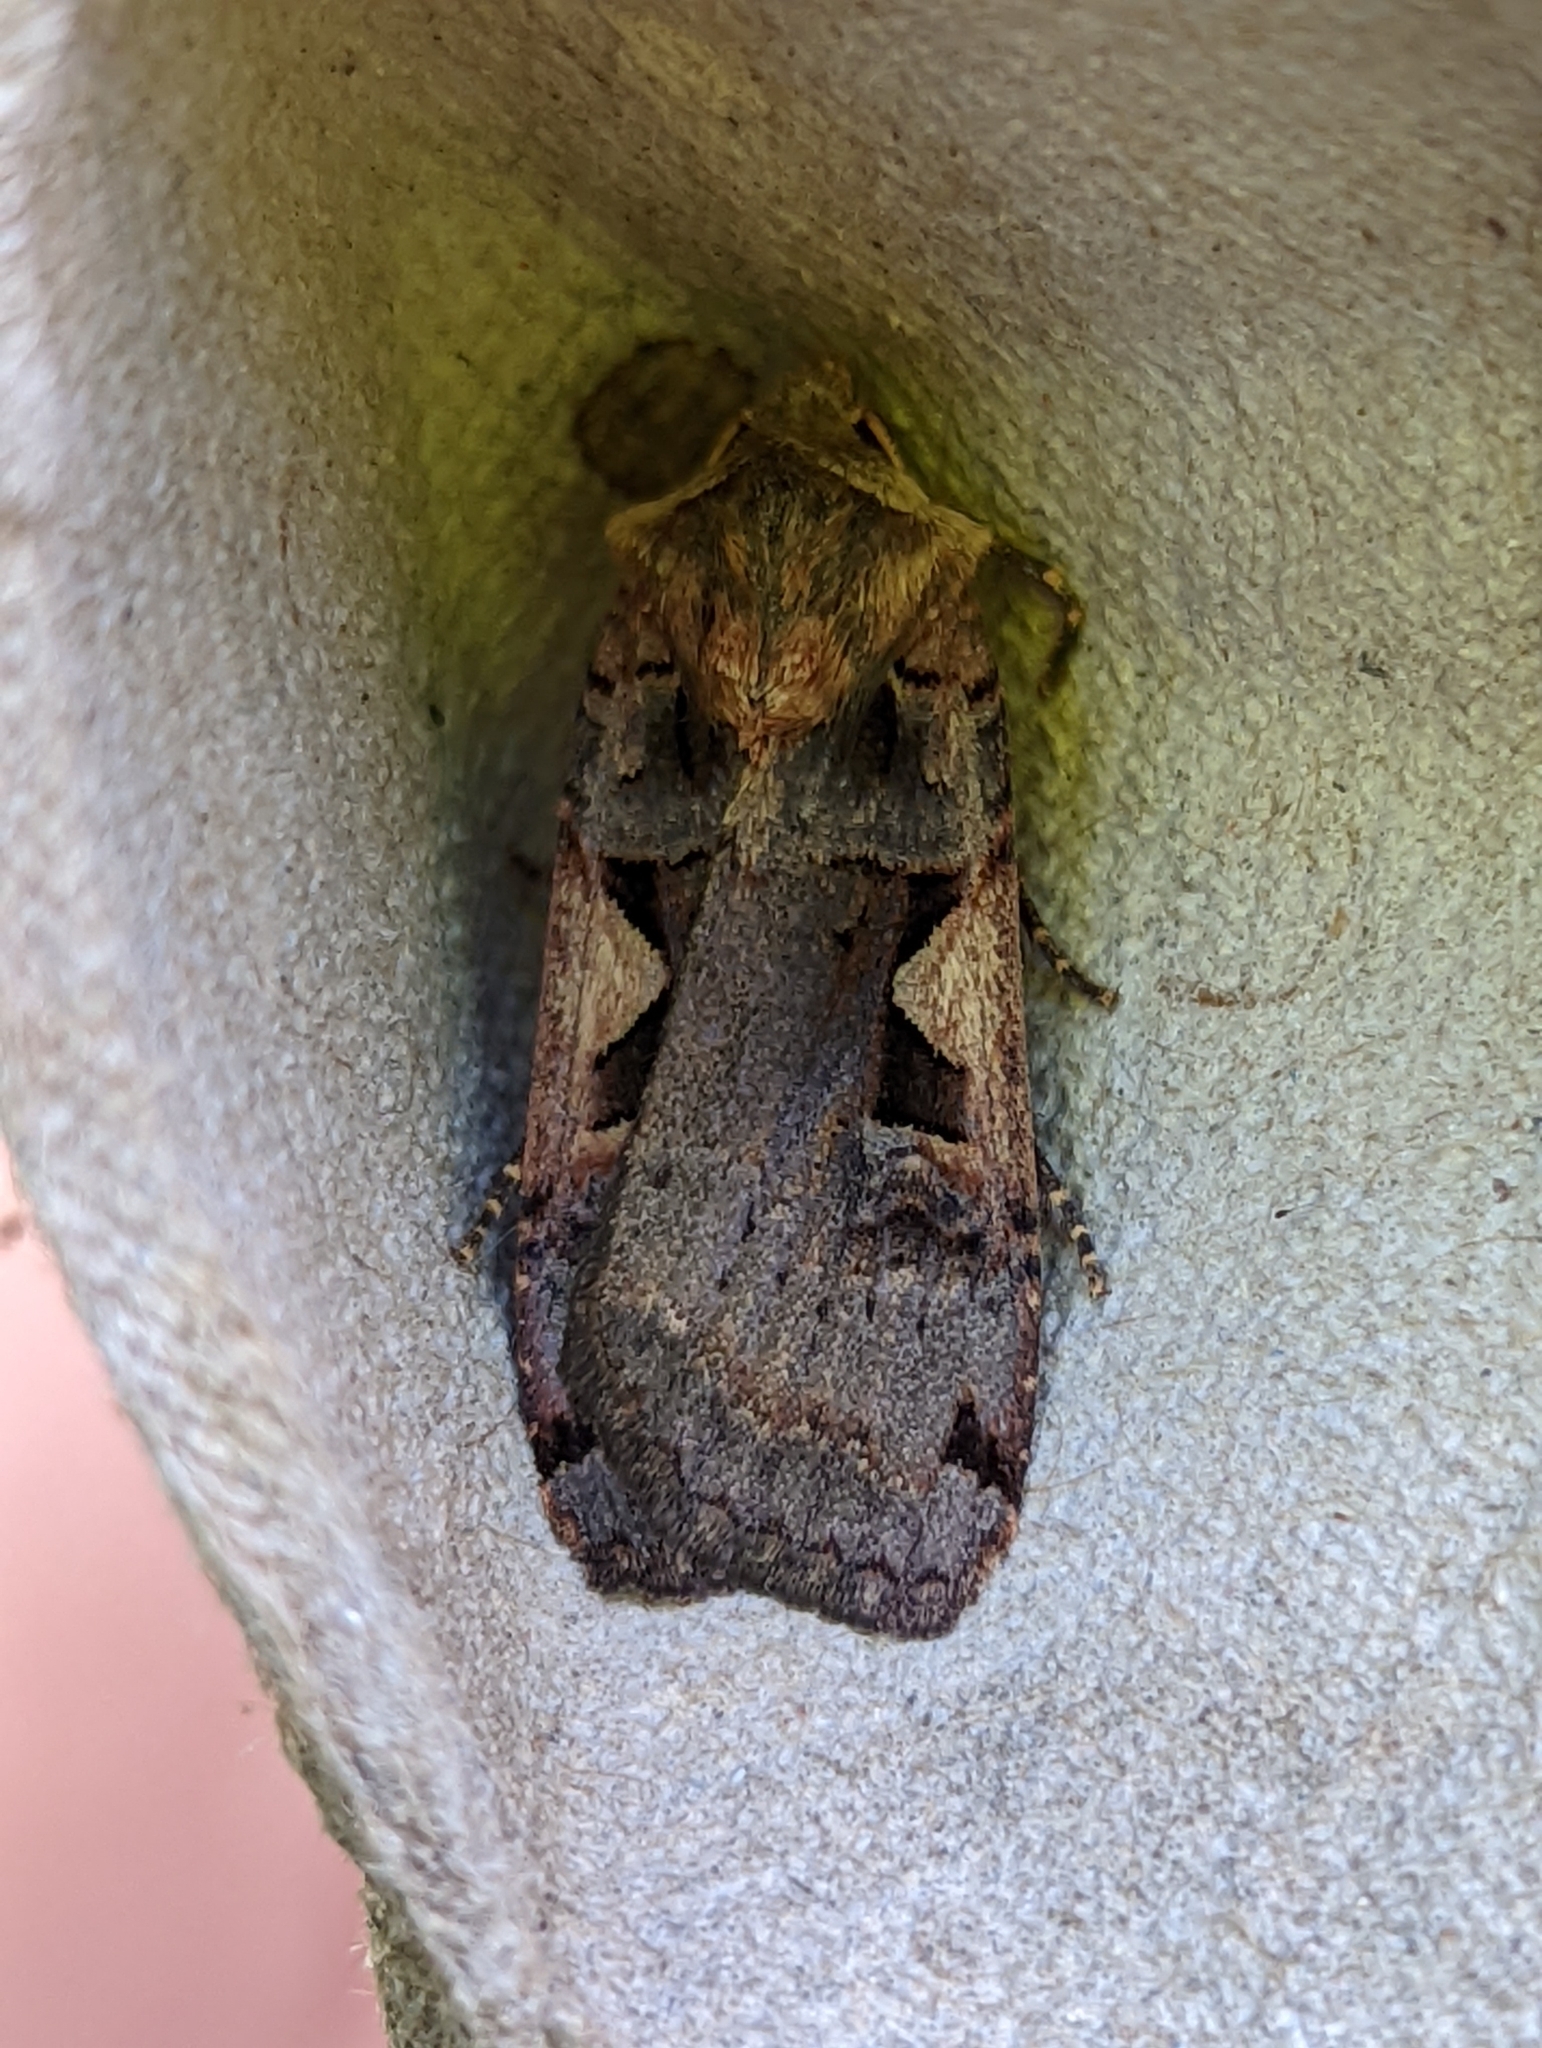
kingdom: Animalia
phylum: Arthropoda
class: Insecta
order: Lepidoptera
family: Noctuidae
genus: Xestia
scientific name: Xestia c-nigrum
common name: Setaceous hebrew character
